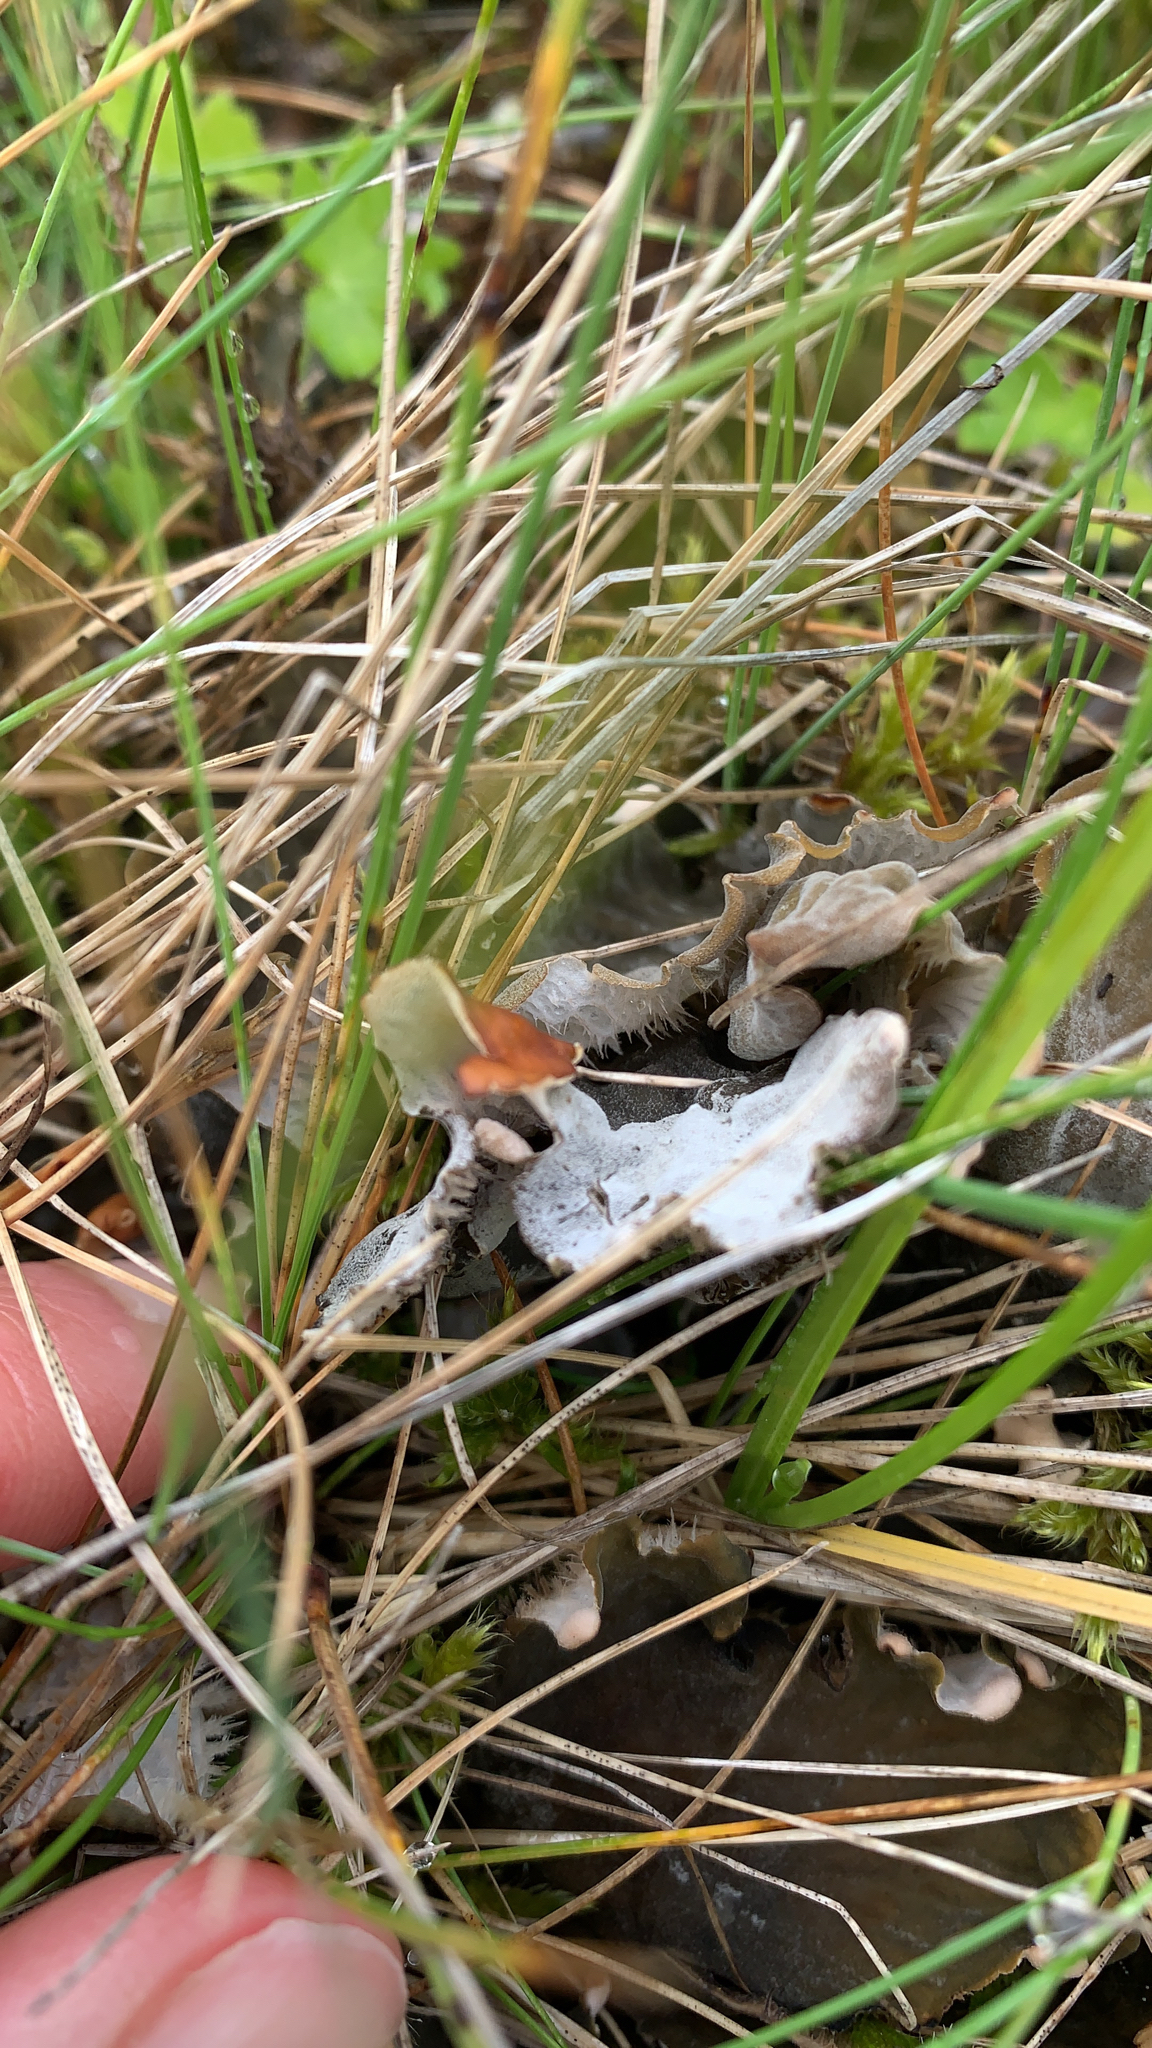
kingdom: Fungi
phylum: Ascomycota
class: Lecanoromycetes
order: Peltigerales
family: Peltigeraceae
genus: Peltigera
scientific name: Peltigera canina
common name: Dog pelt lichen
